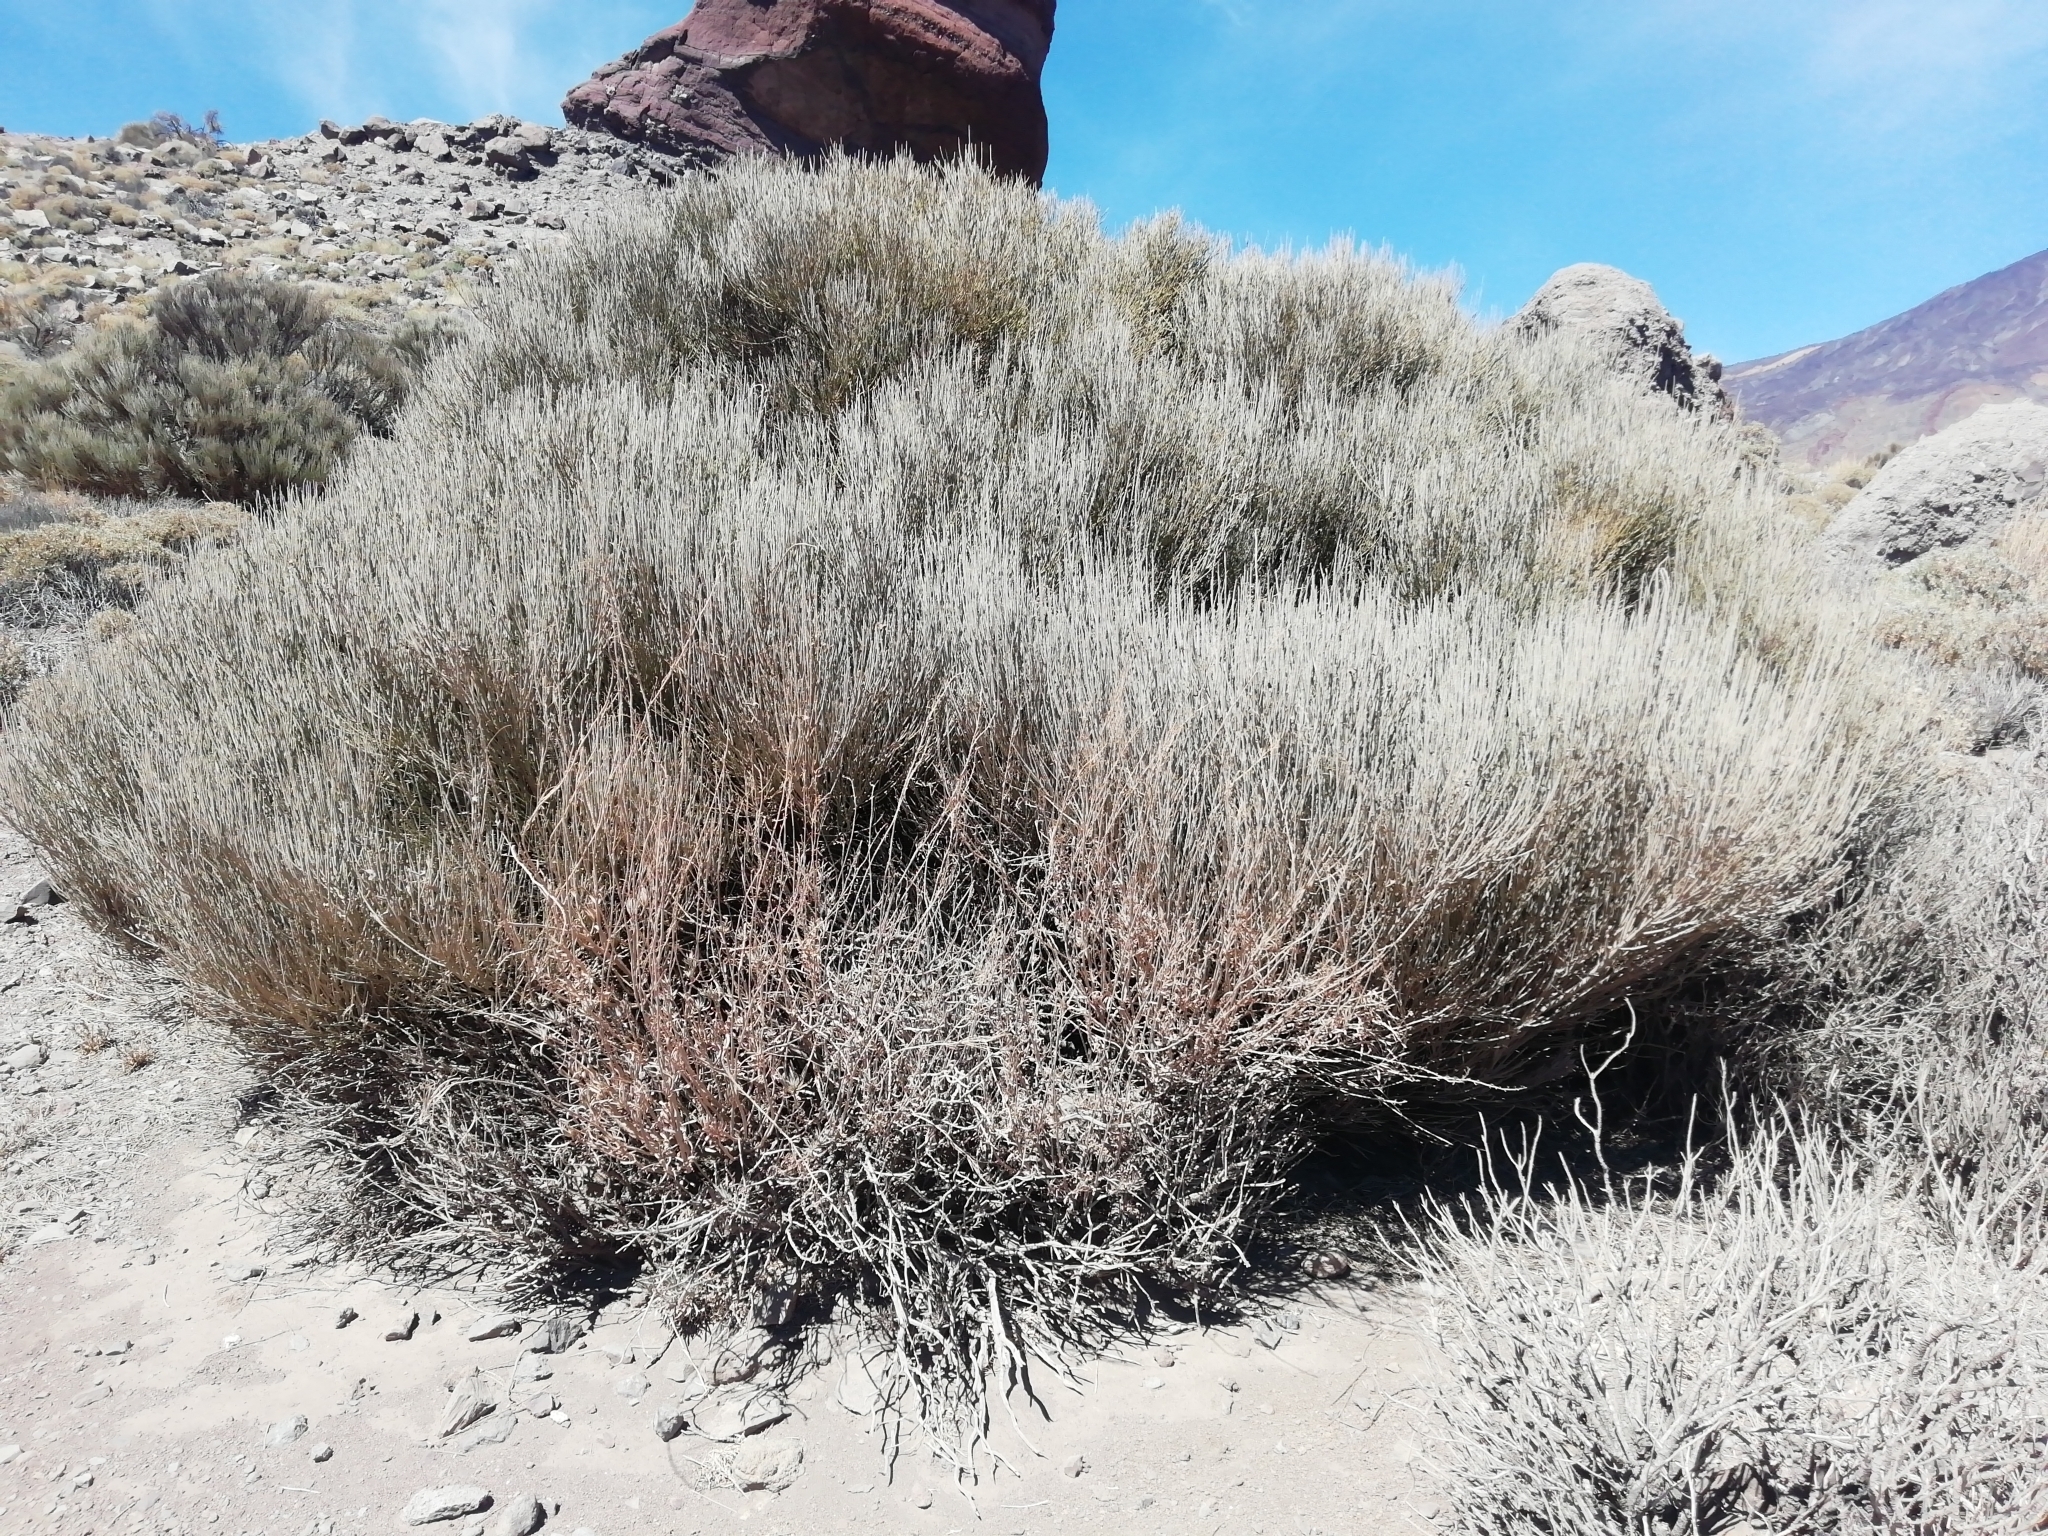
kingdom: Plantae
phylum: Tracheophyta
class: Magnoliopsida
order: Fabales
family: Fabaceae
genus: Cytisus
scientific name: Cytisus supranubius
